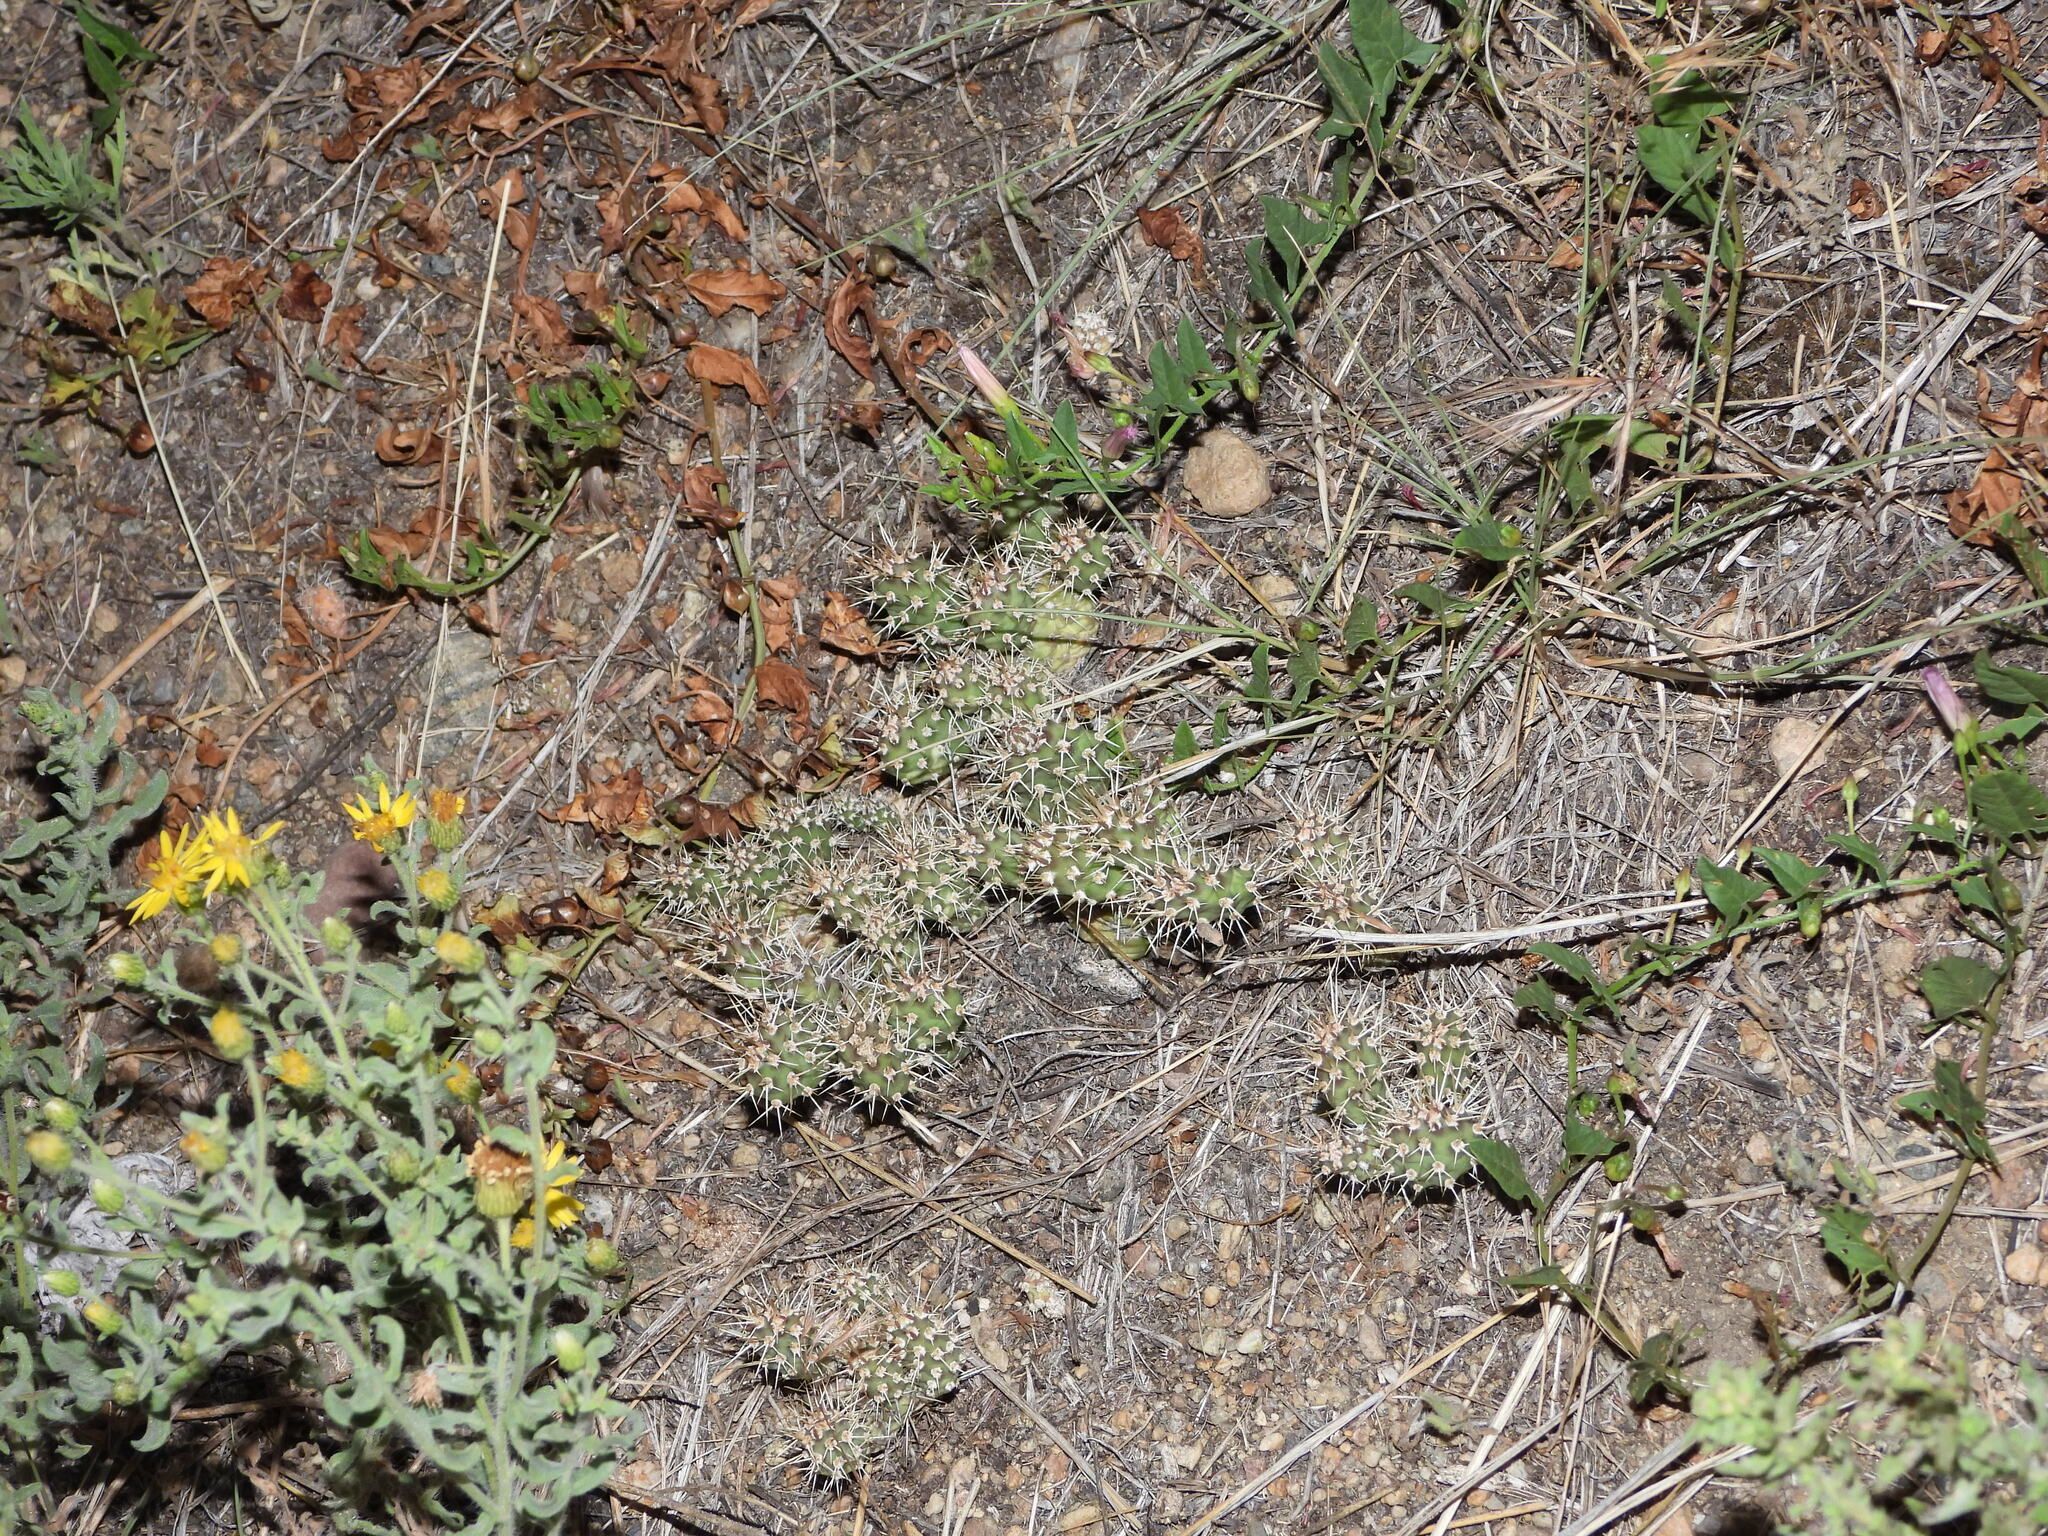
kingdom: Plantae
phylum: Tracheophyta
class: Magnoliopsida
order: Caryophyllales
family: Cactaceae
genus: Opuntia
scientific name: Opuntia fragilis
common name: Brittle cactus
